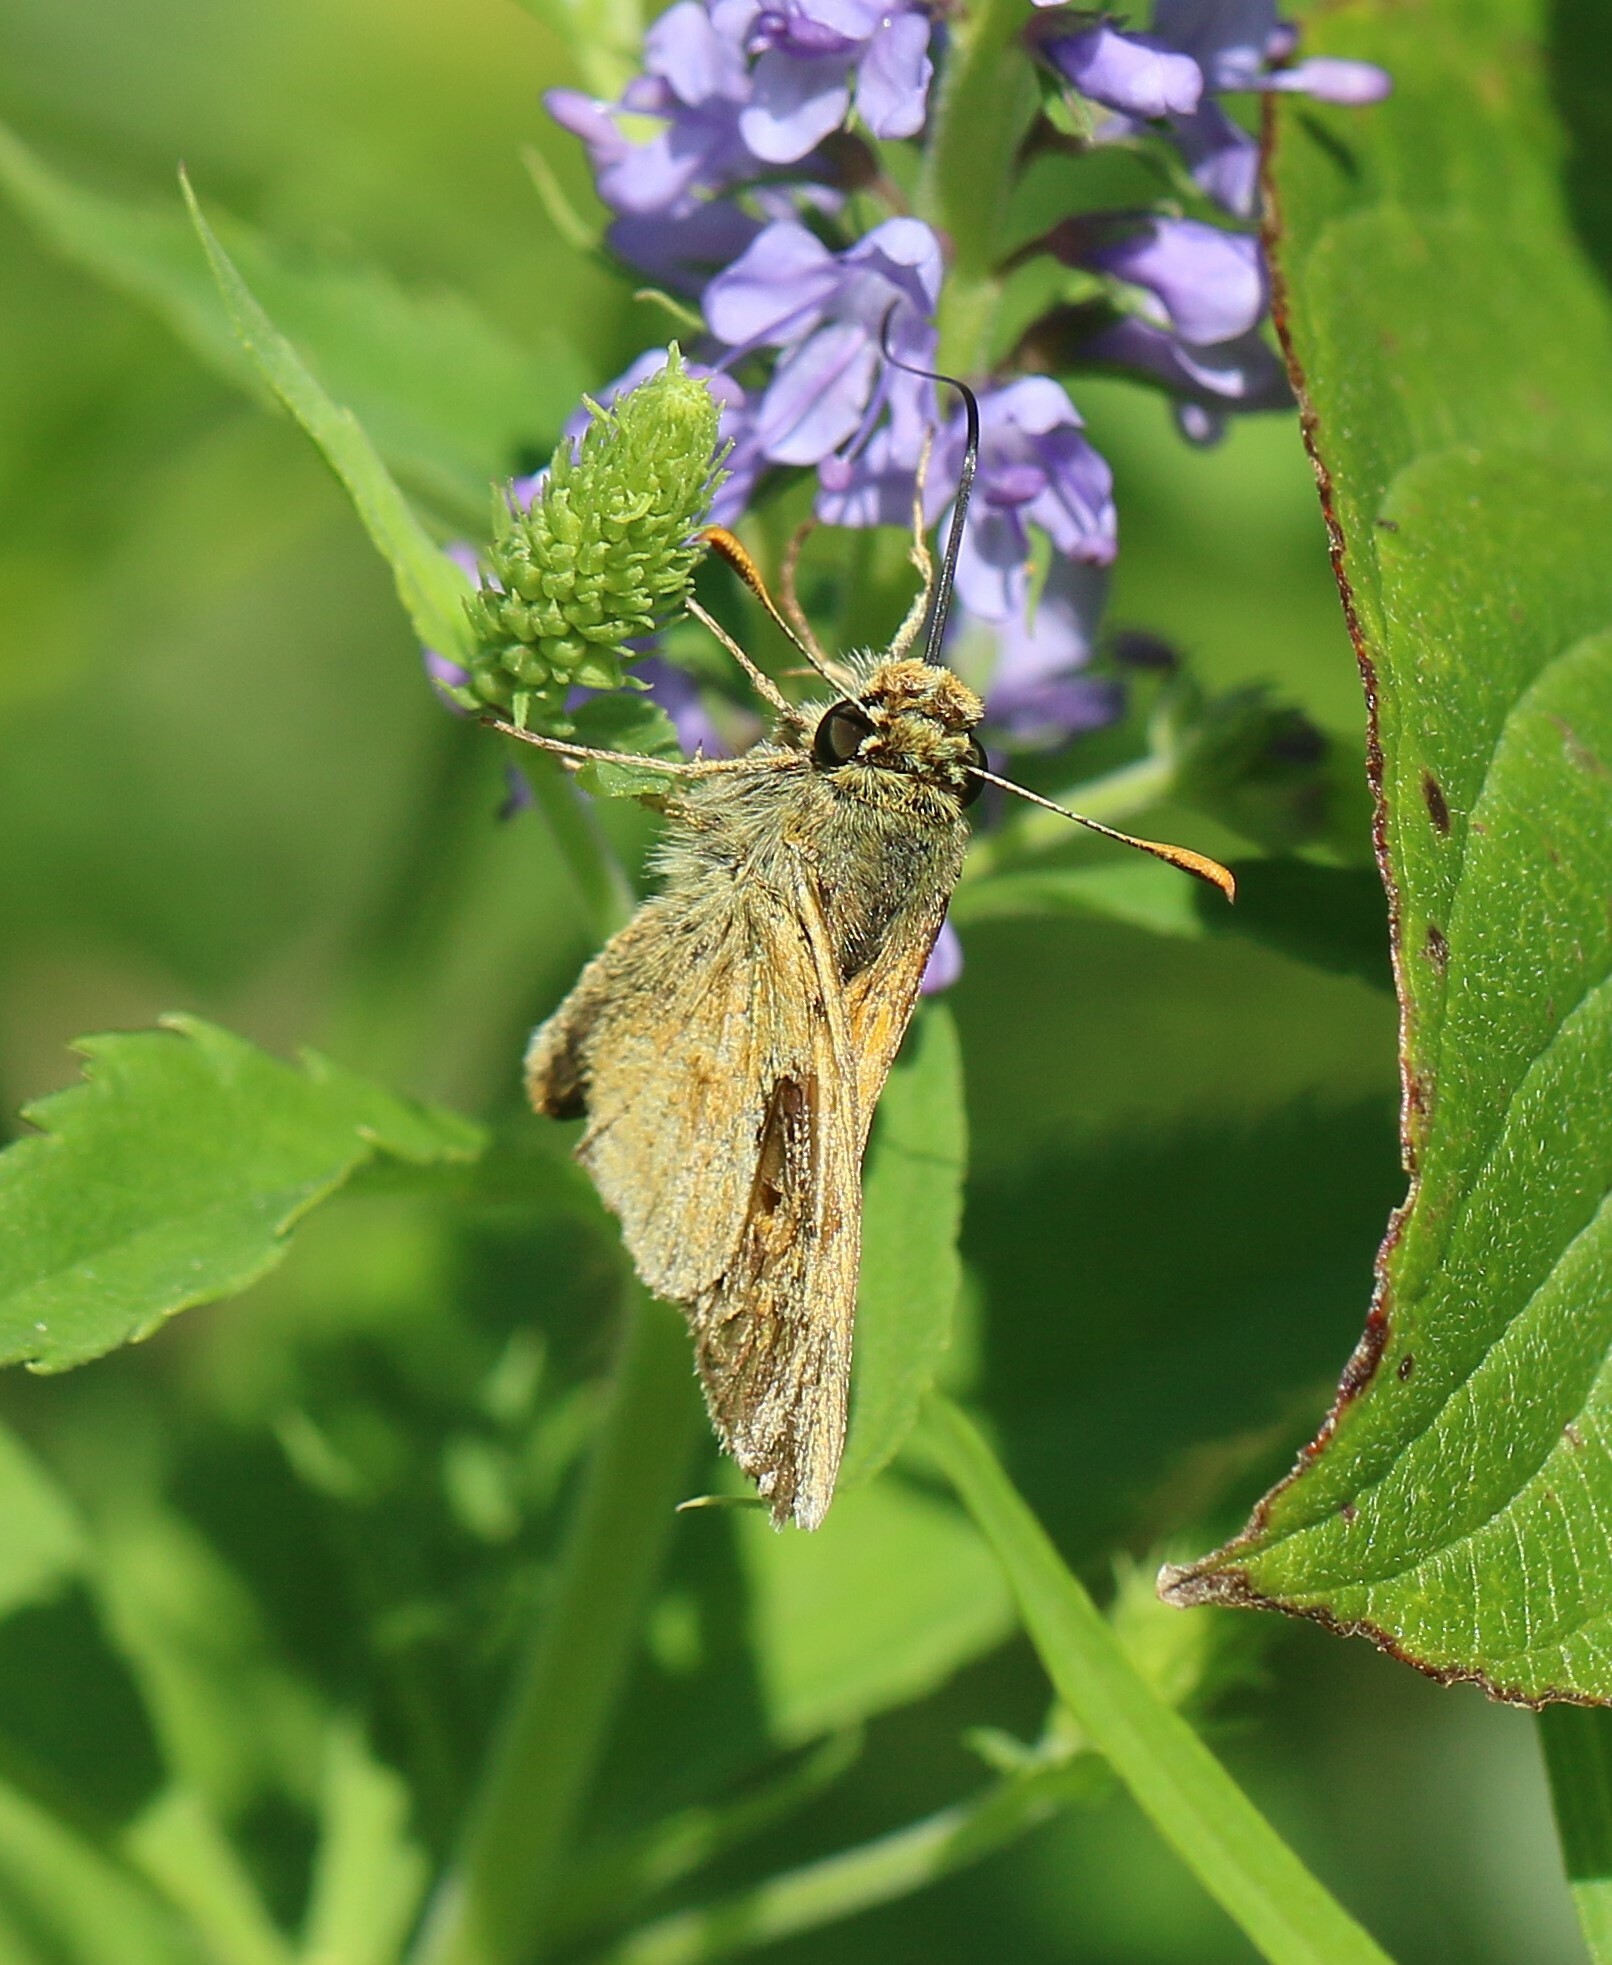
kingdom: Animalia
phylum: Arthropoda
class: Insecta
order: Lepidoptera
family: Hesperiidae
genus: Polites
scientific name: Polites mystic
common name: Long dash
